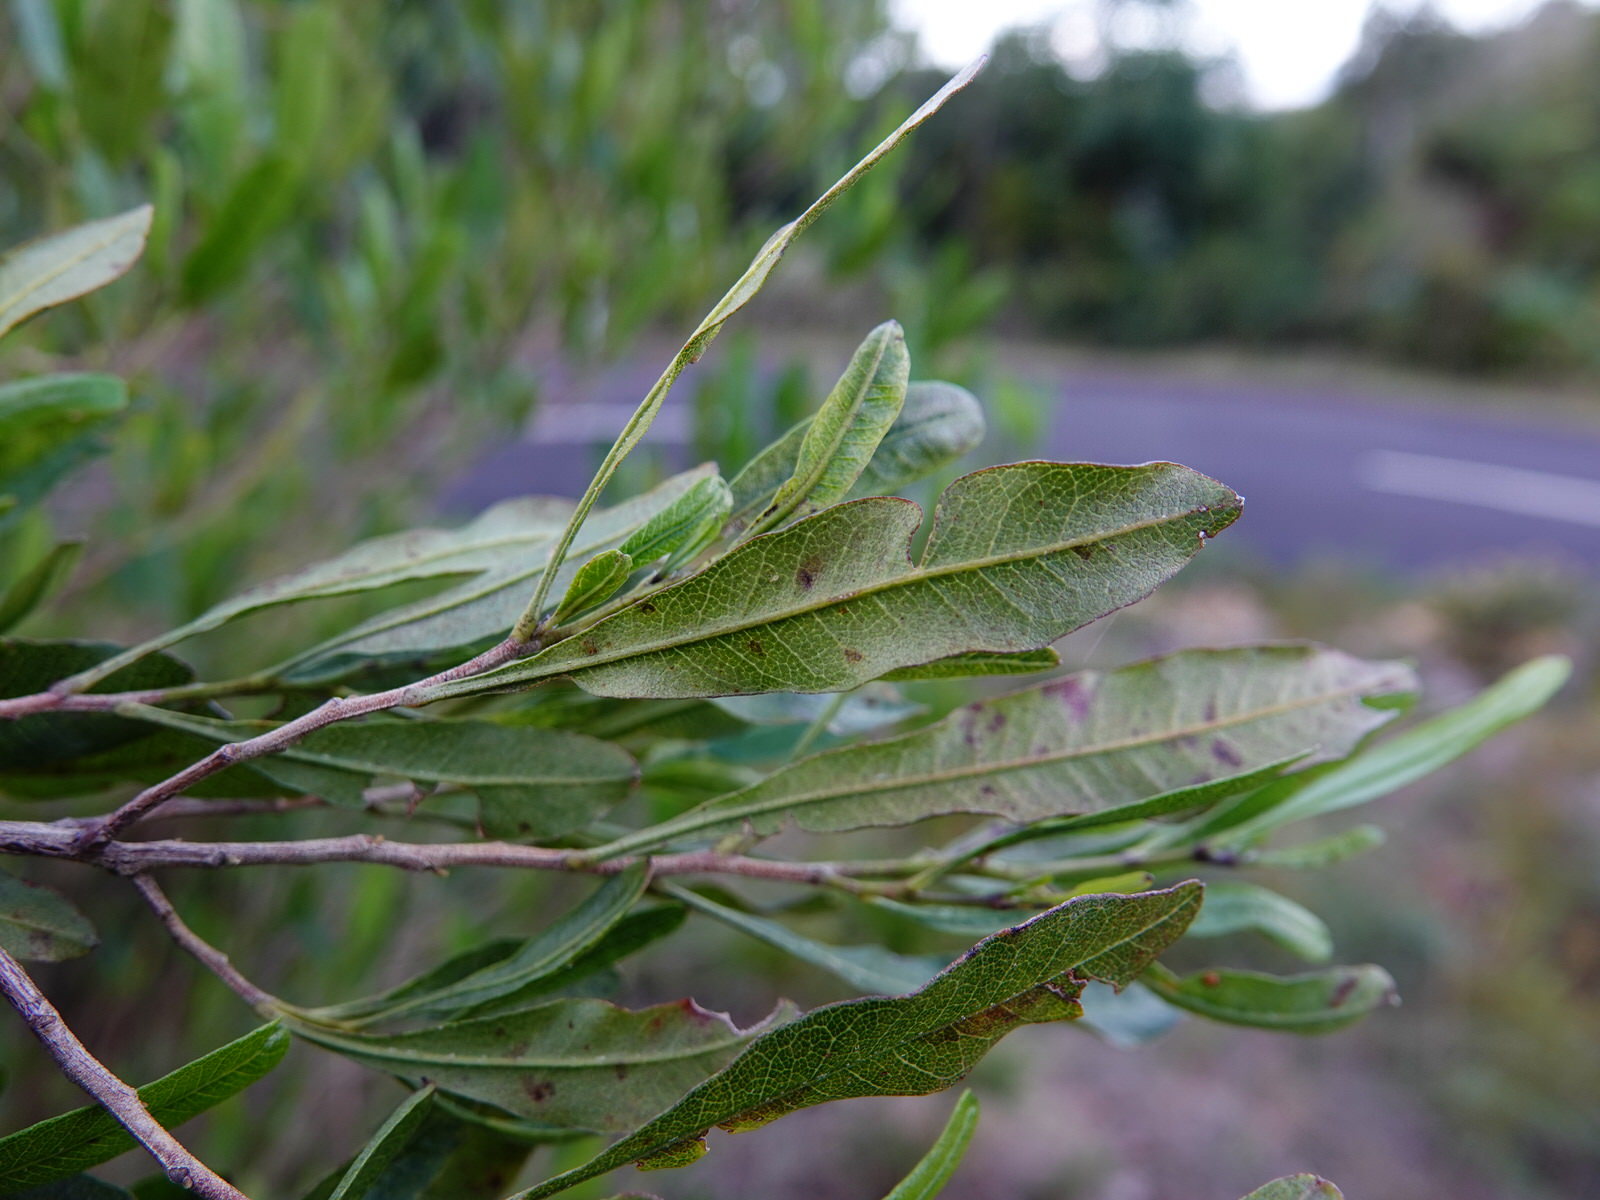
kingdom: Plantae
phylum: Tracheophyta
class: Magnoliopsida
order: Sapindales
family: Sapindaceae
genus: Dodonaea
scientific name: Dodonaea viscosa
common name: Hopbush
